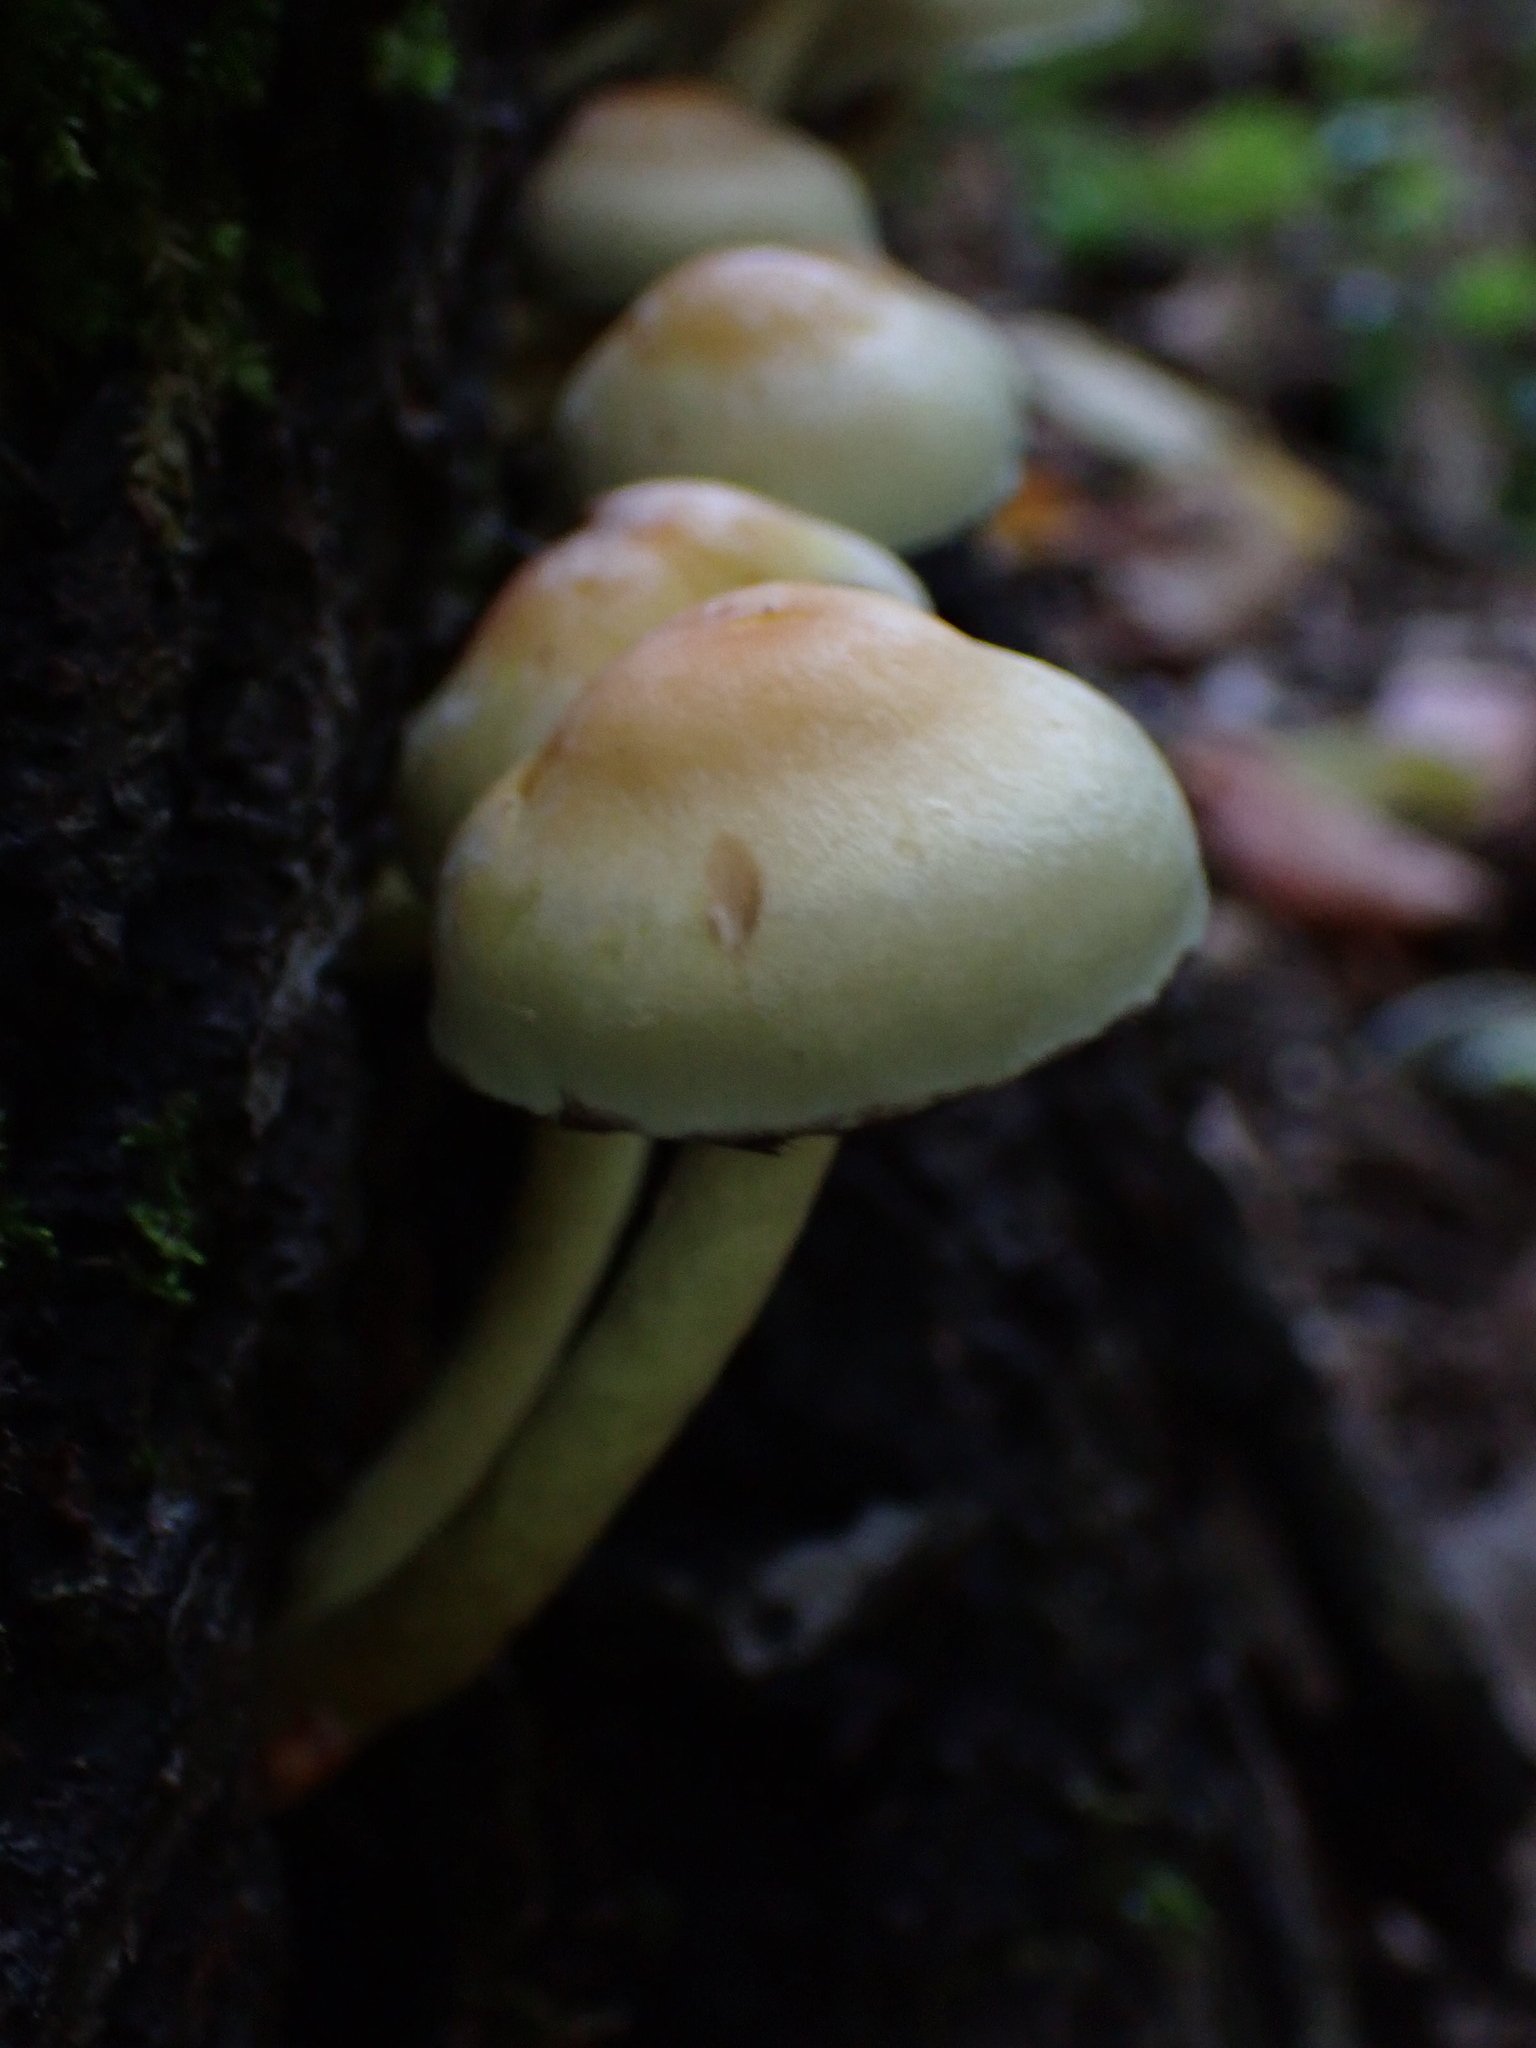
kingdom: Fungi
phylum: Basidiomycota
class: Agaricomycetes
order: Agaricales
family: Strophariaceae
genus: Hypholoma
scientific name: Hypholoma fasciculare
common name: Sulphur tuft
